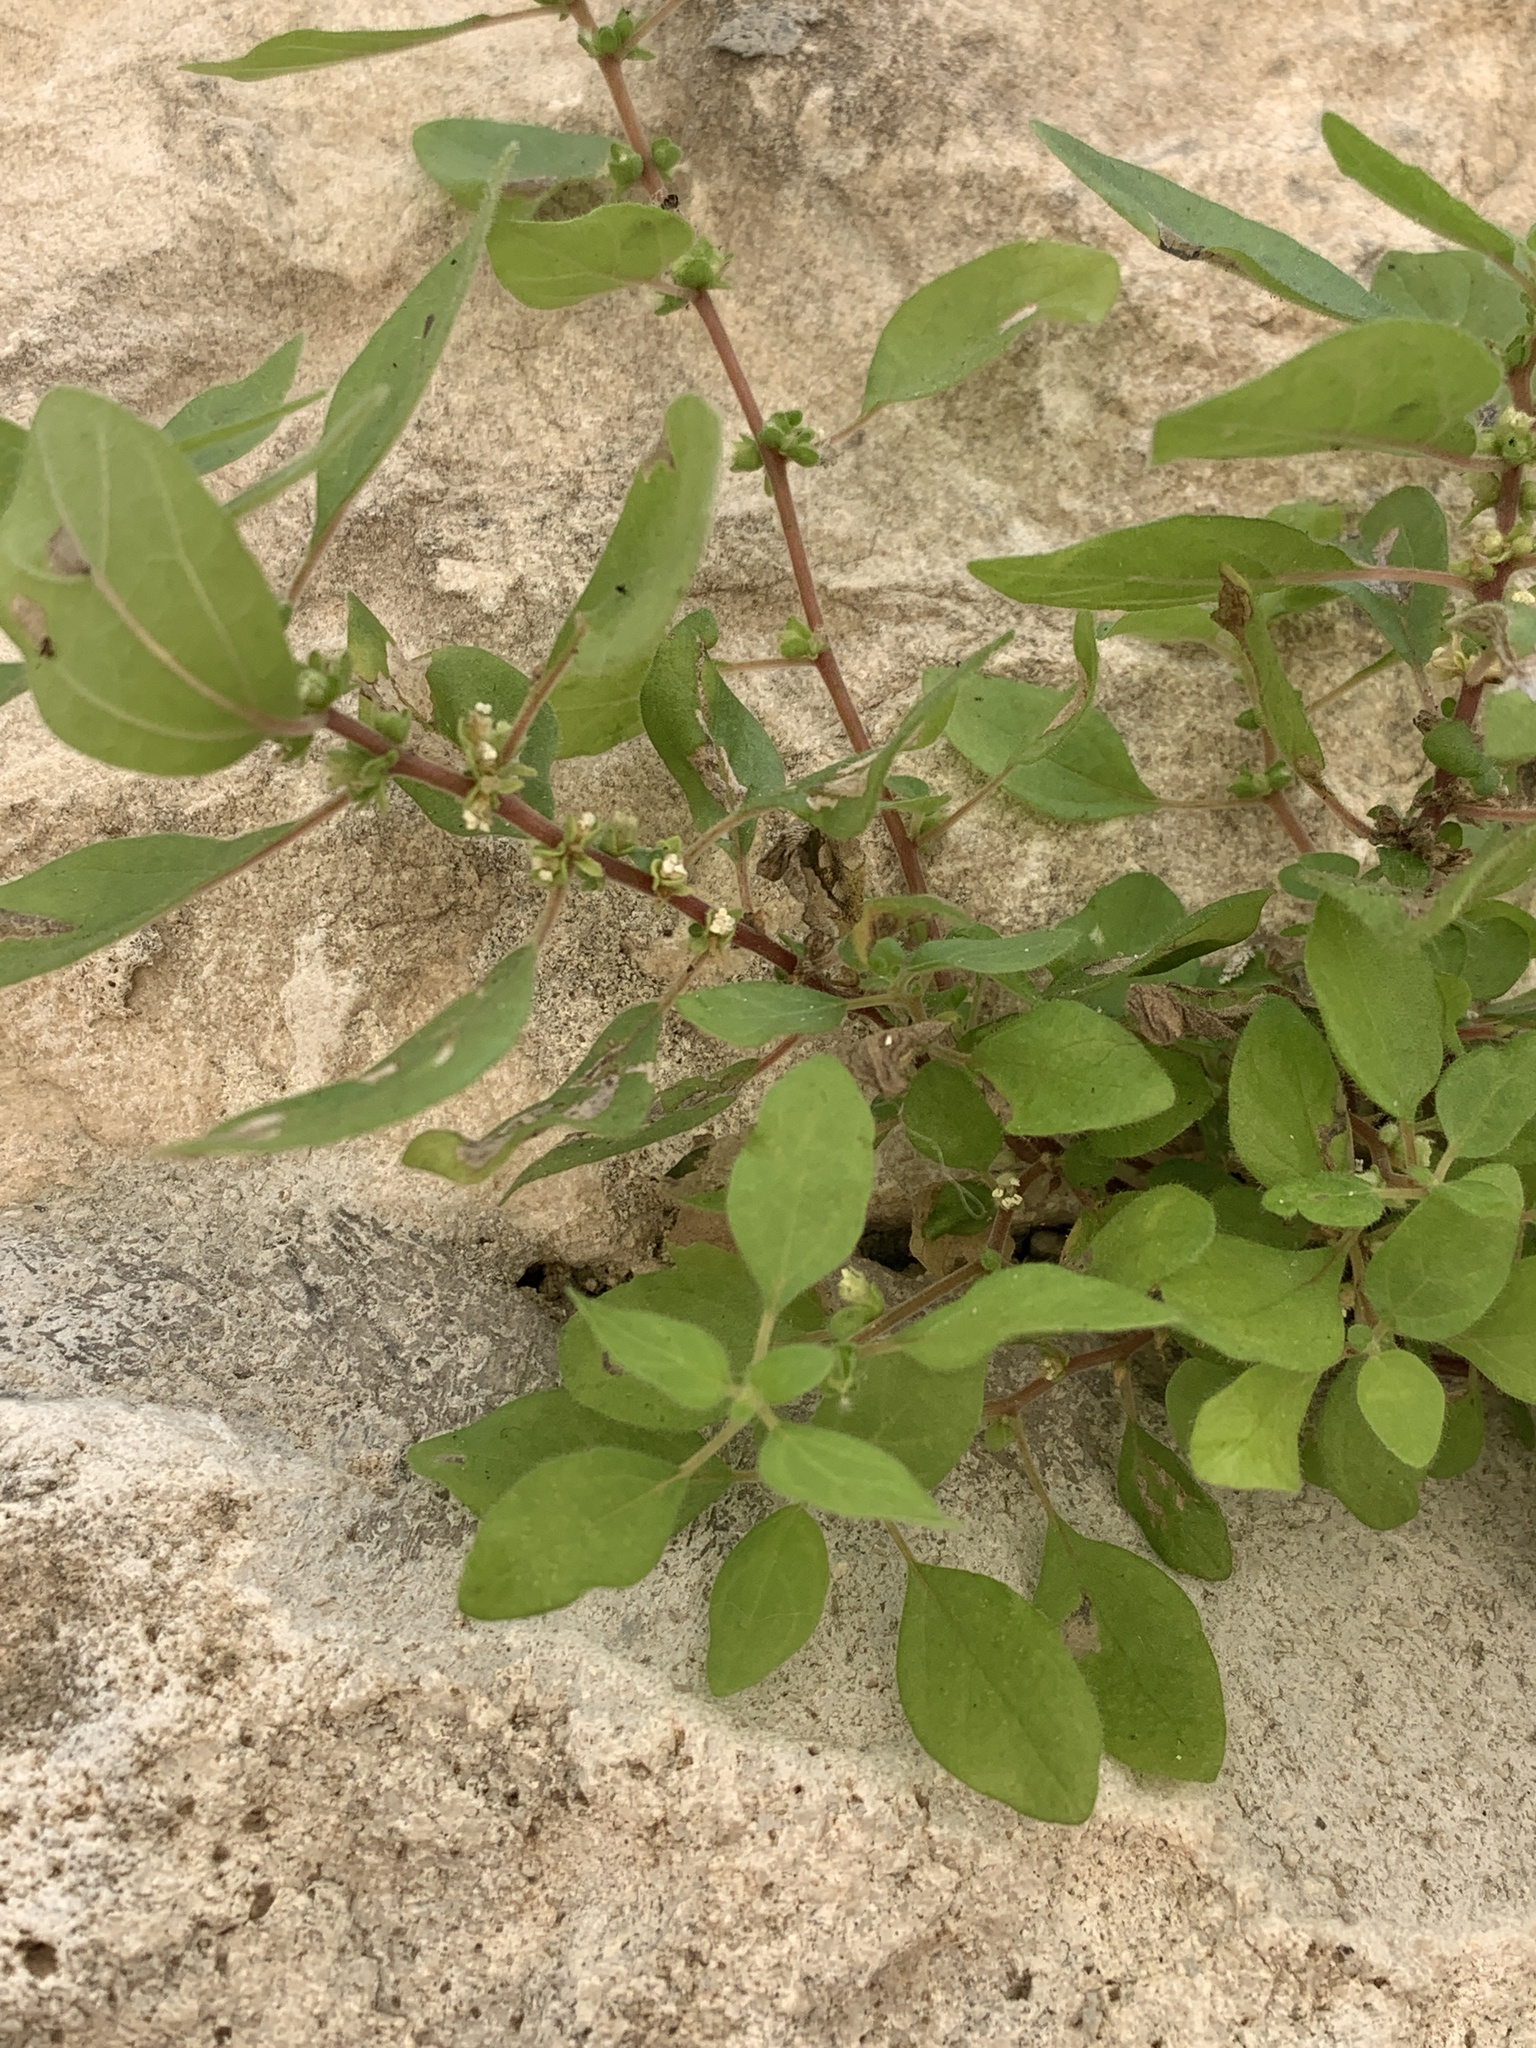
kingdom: Plantae
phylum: Tracheophyta
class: Magnoliopsida
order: Rosales
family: Urticaceae
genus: Parietaria
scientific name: Parietaria judaica
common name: Pellitory-of-the-wall
